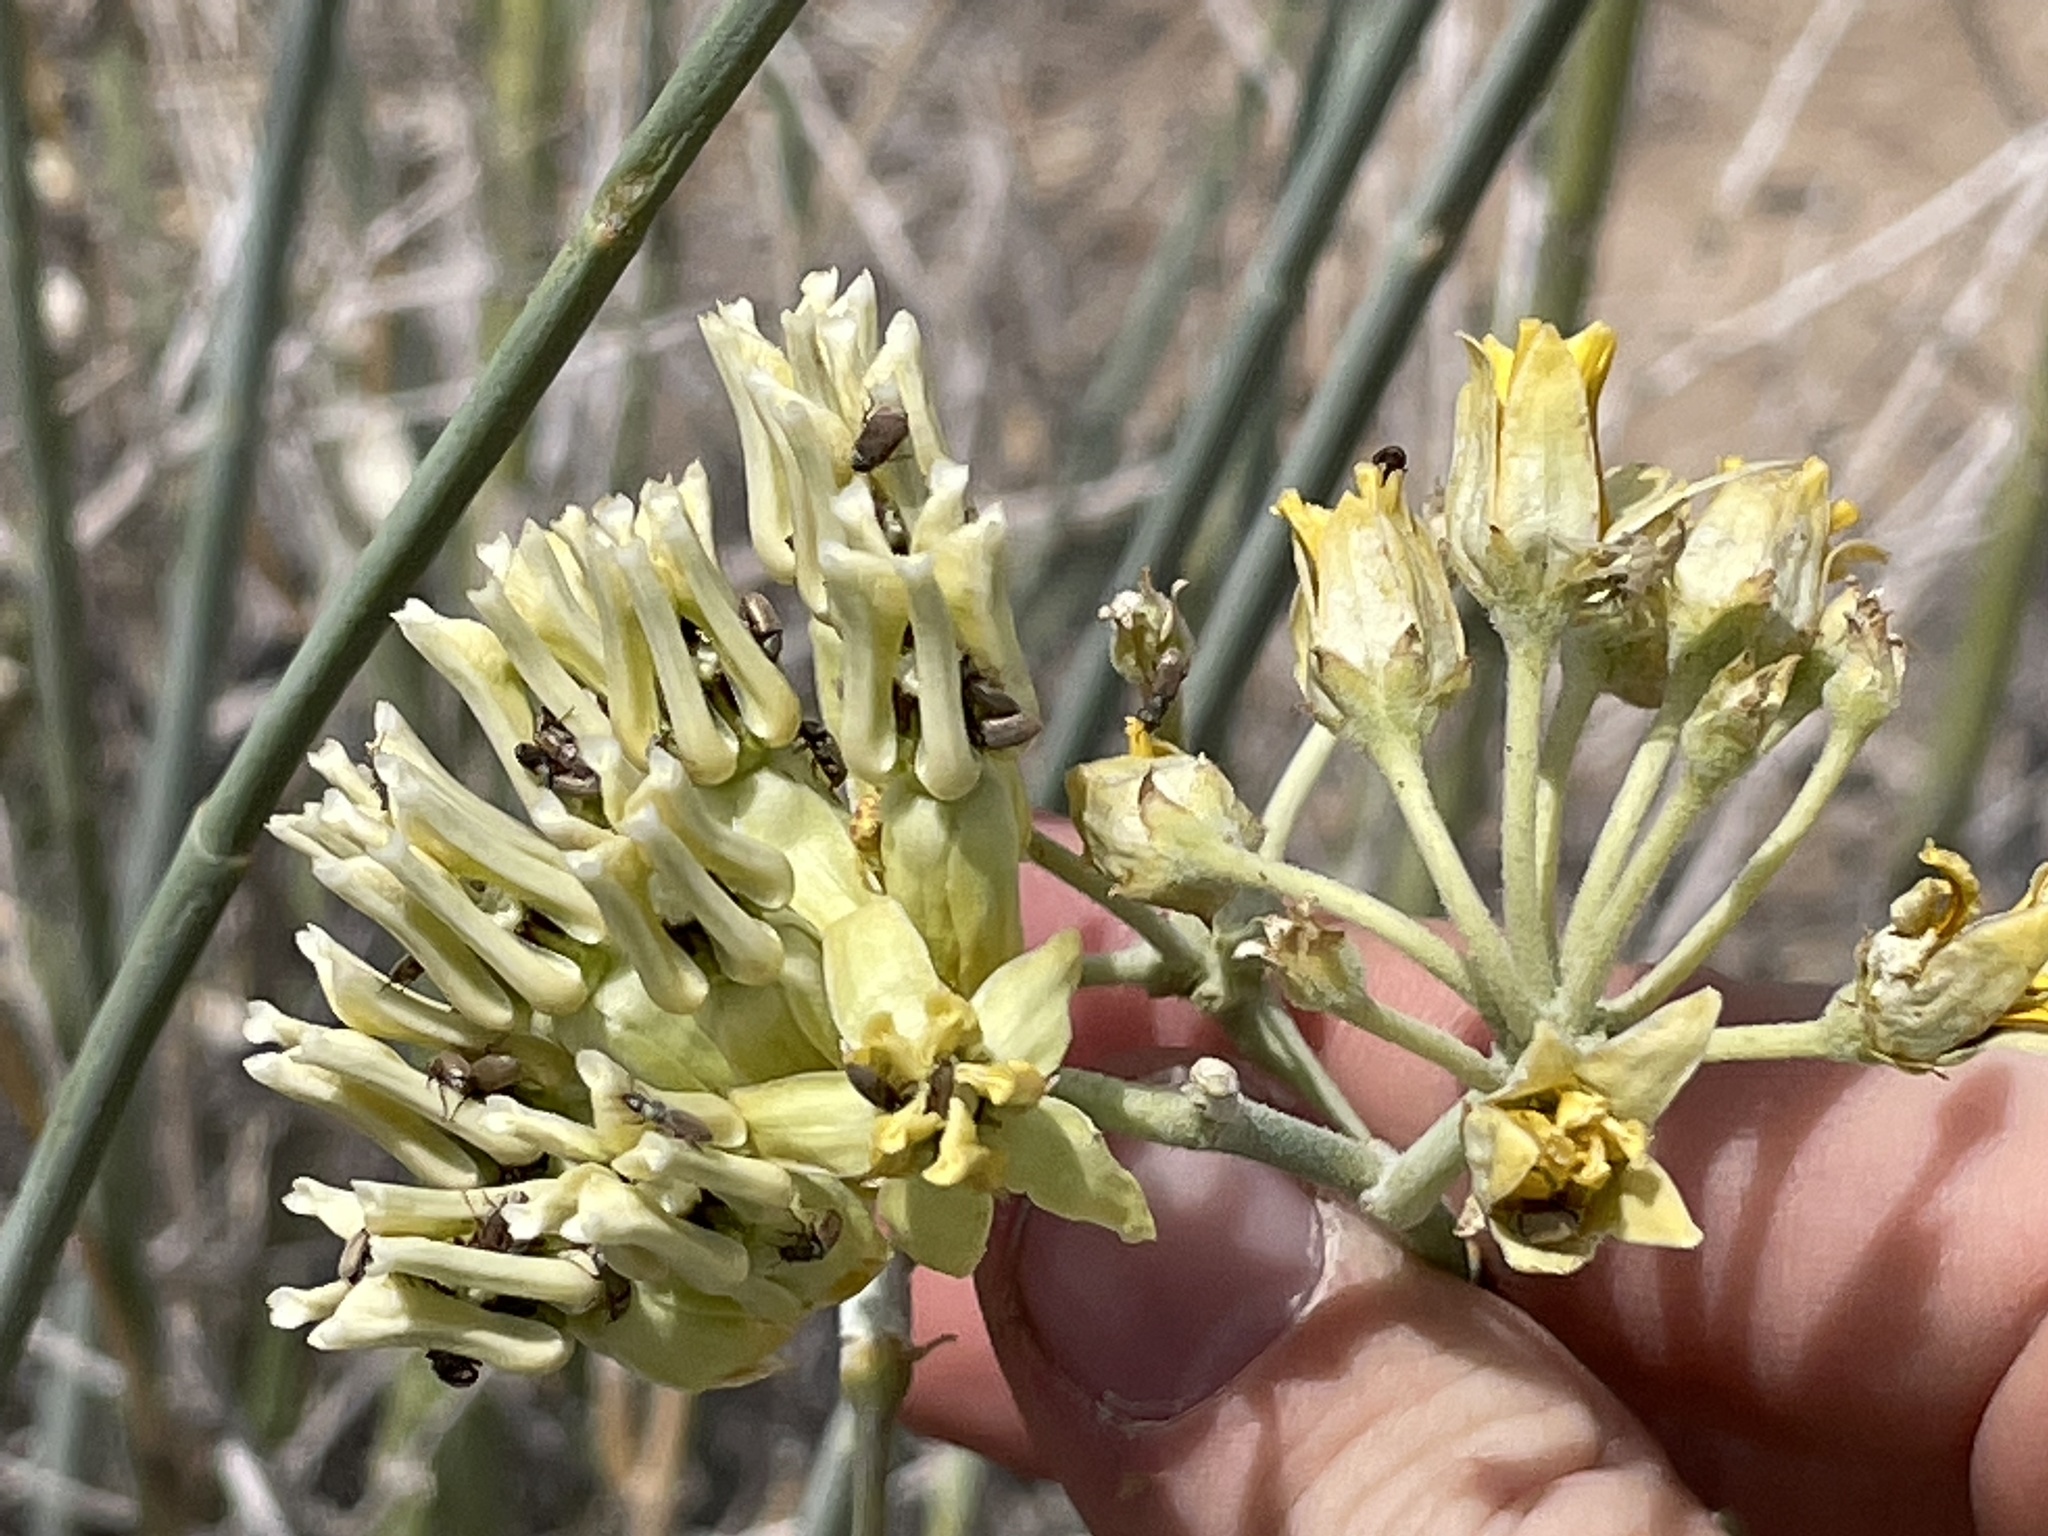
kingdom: Plantae
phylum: Tracheophyta
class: Magnoliopsida
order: Gentianales
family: Apocynaceae
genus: Asclepias
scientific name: Asclepias subulata
